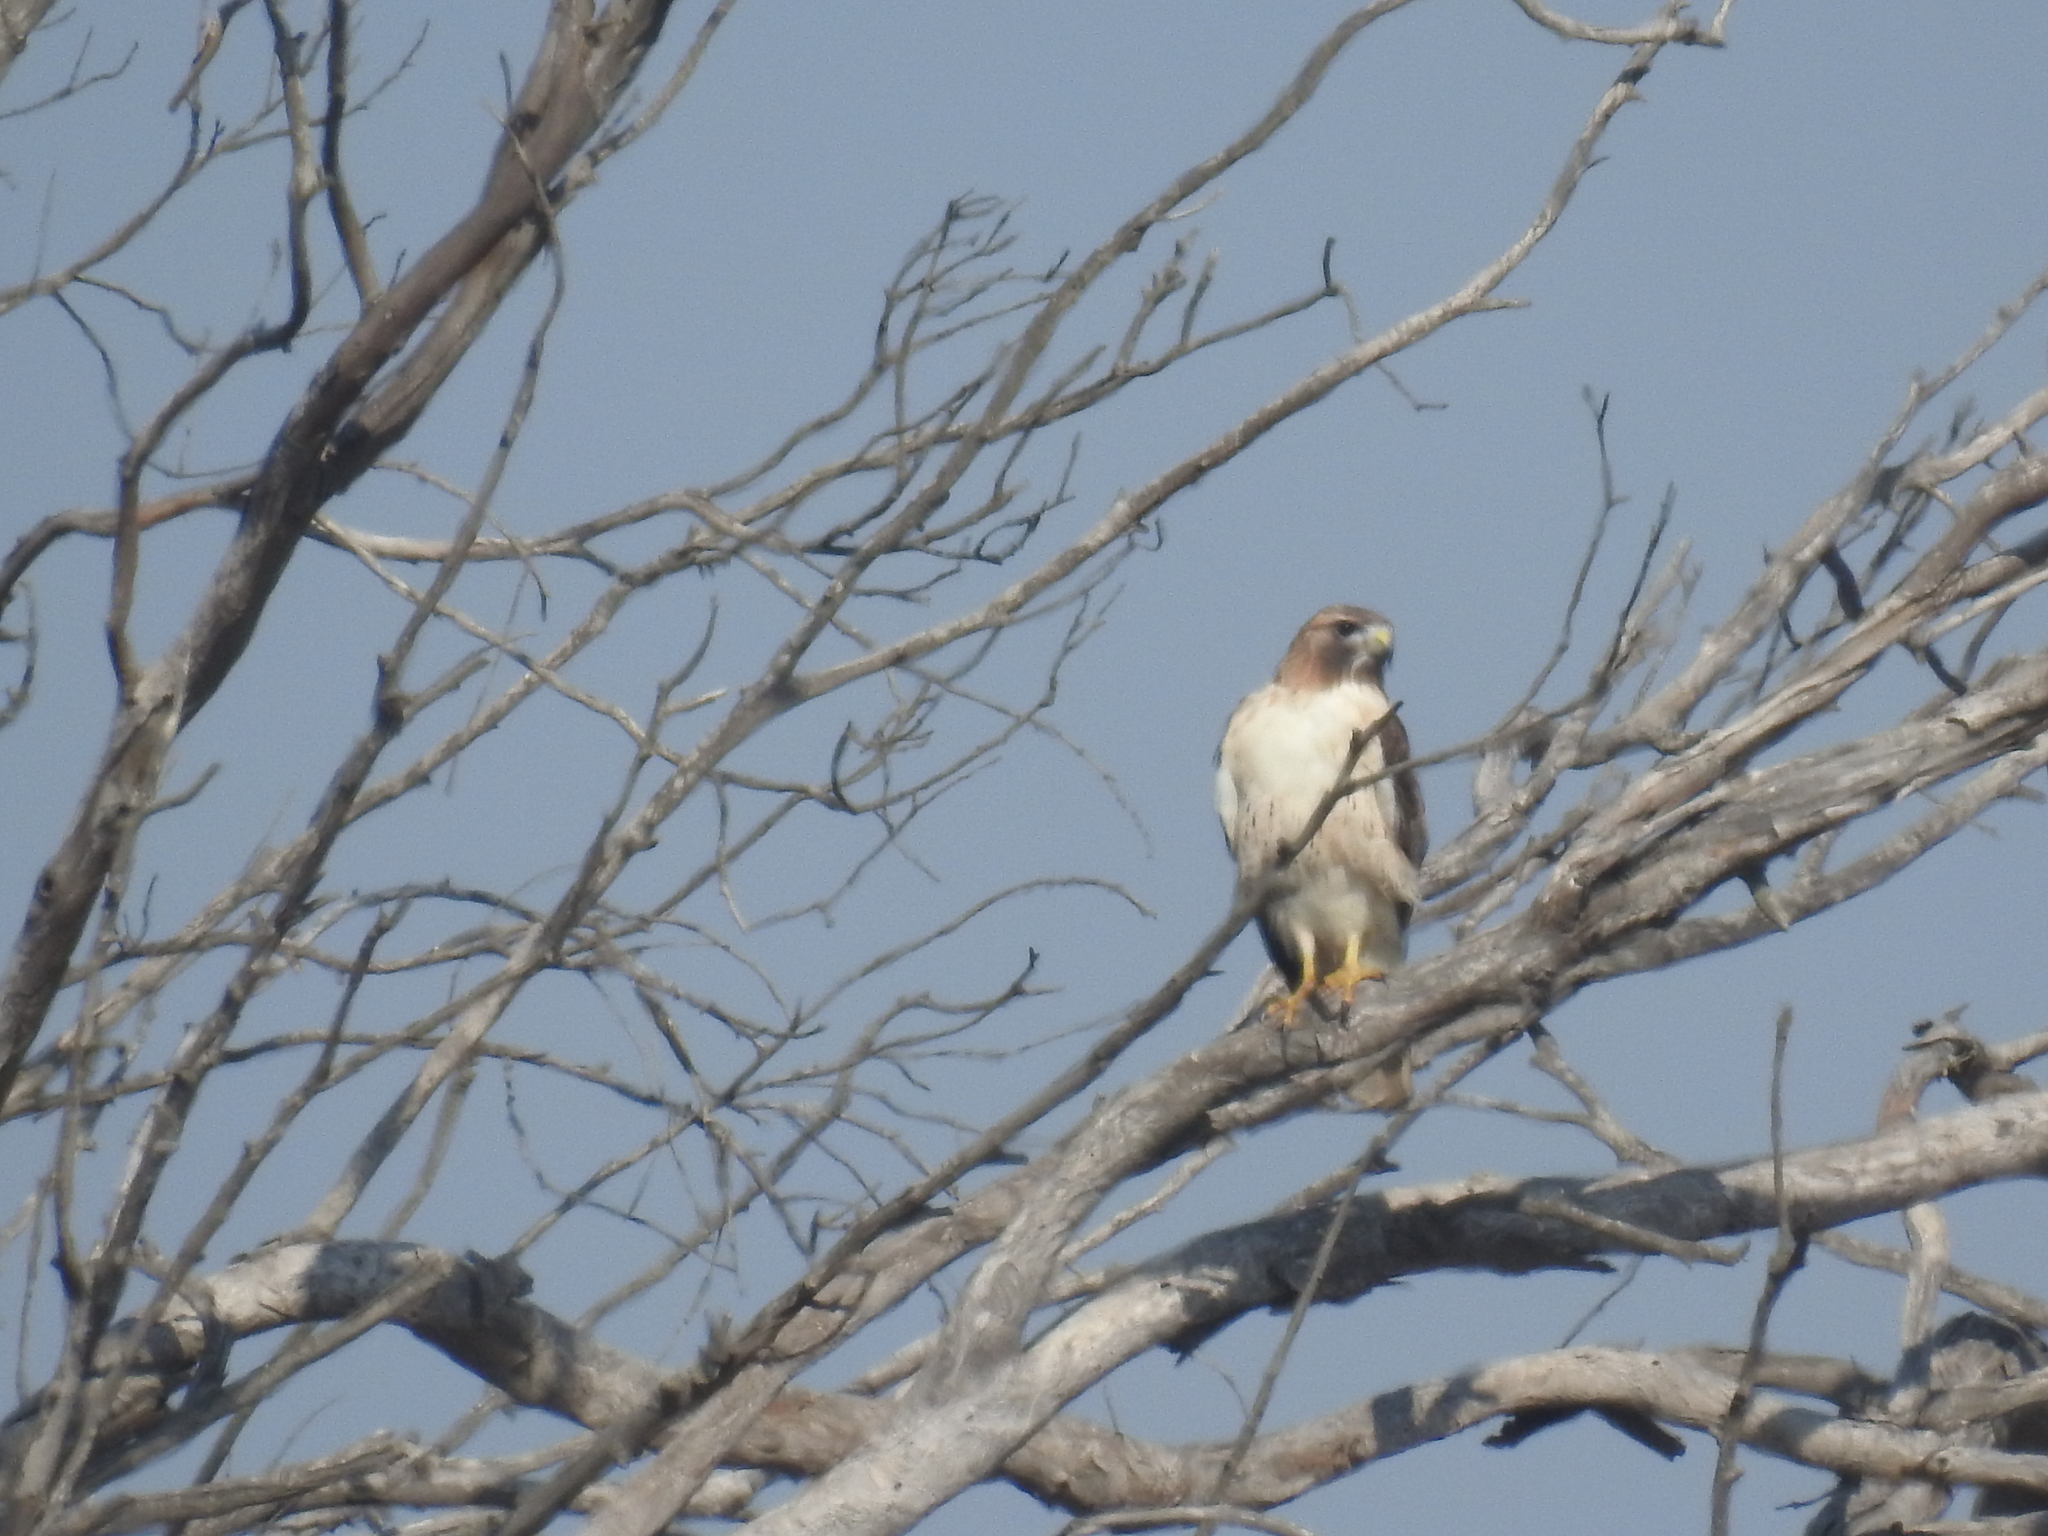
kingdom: Animalia
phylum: Chordata
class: Aves
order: Accipitriformes
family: Accipitridae
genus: Buteo
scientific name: Buteo jamaicensis
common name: Red-tailed hawk
